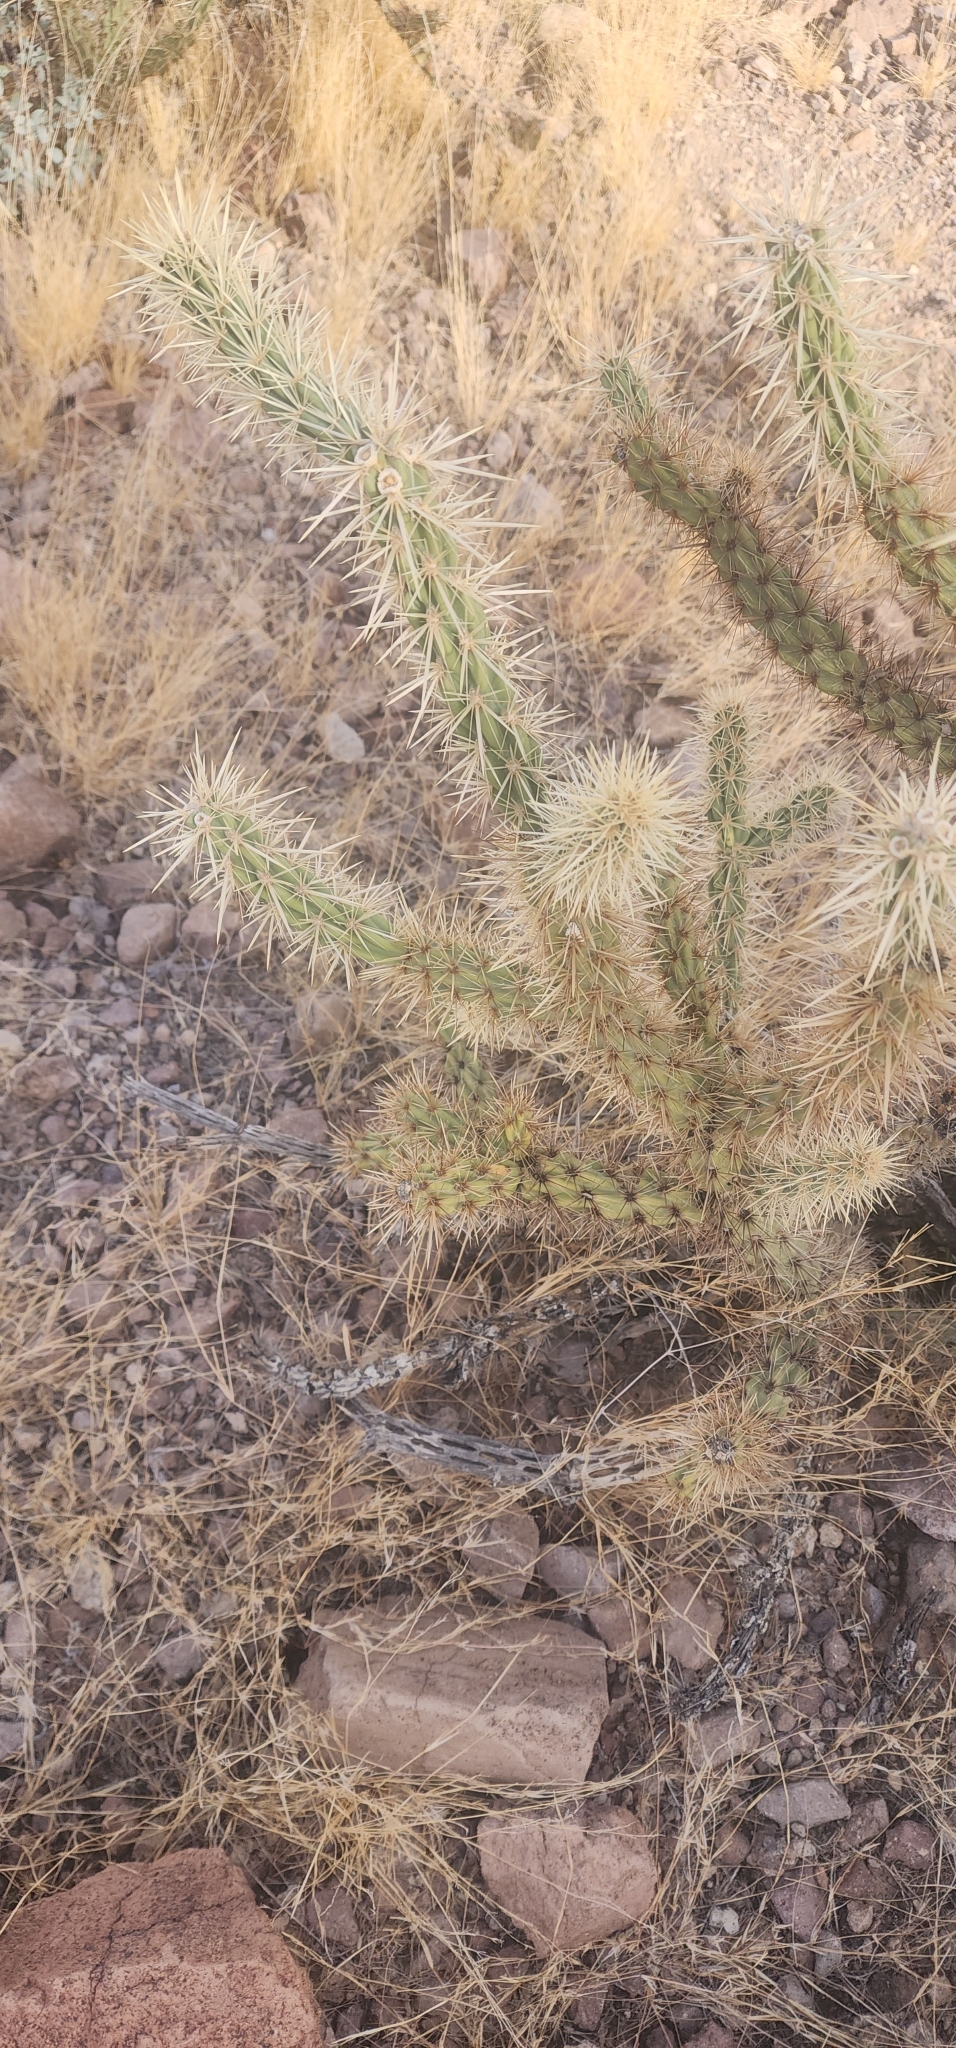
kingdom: Plantae
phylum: Tracheophyta
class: Magnoliopsida
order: Caryophyllales
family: Cactaceae
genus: Cylindropuntia
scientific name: Cylindropuntia acanthocarpa
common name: Buckhorn cholla
